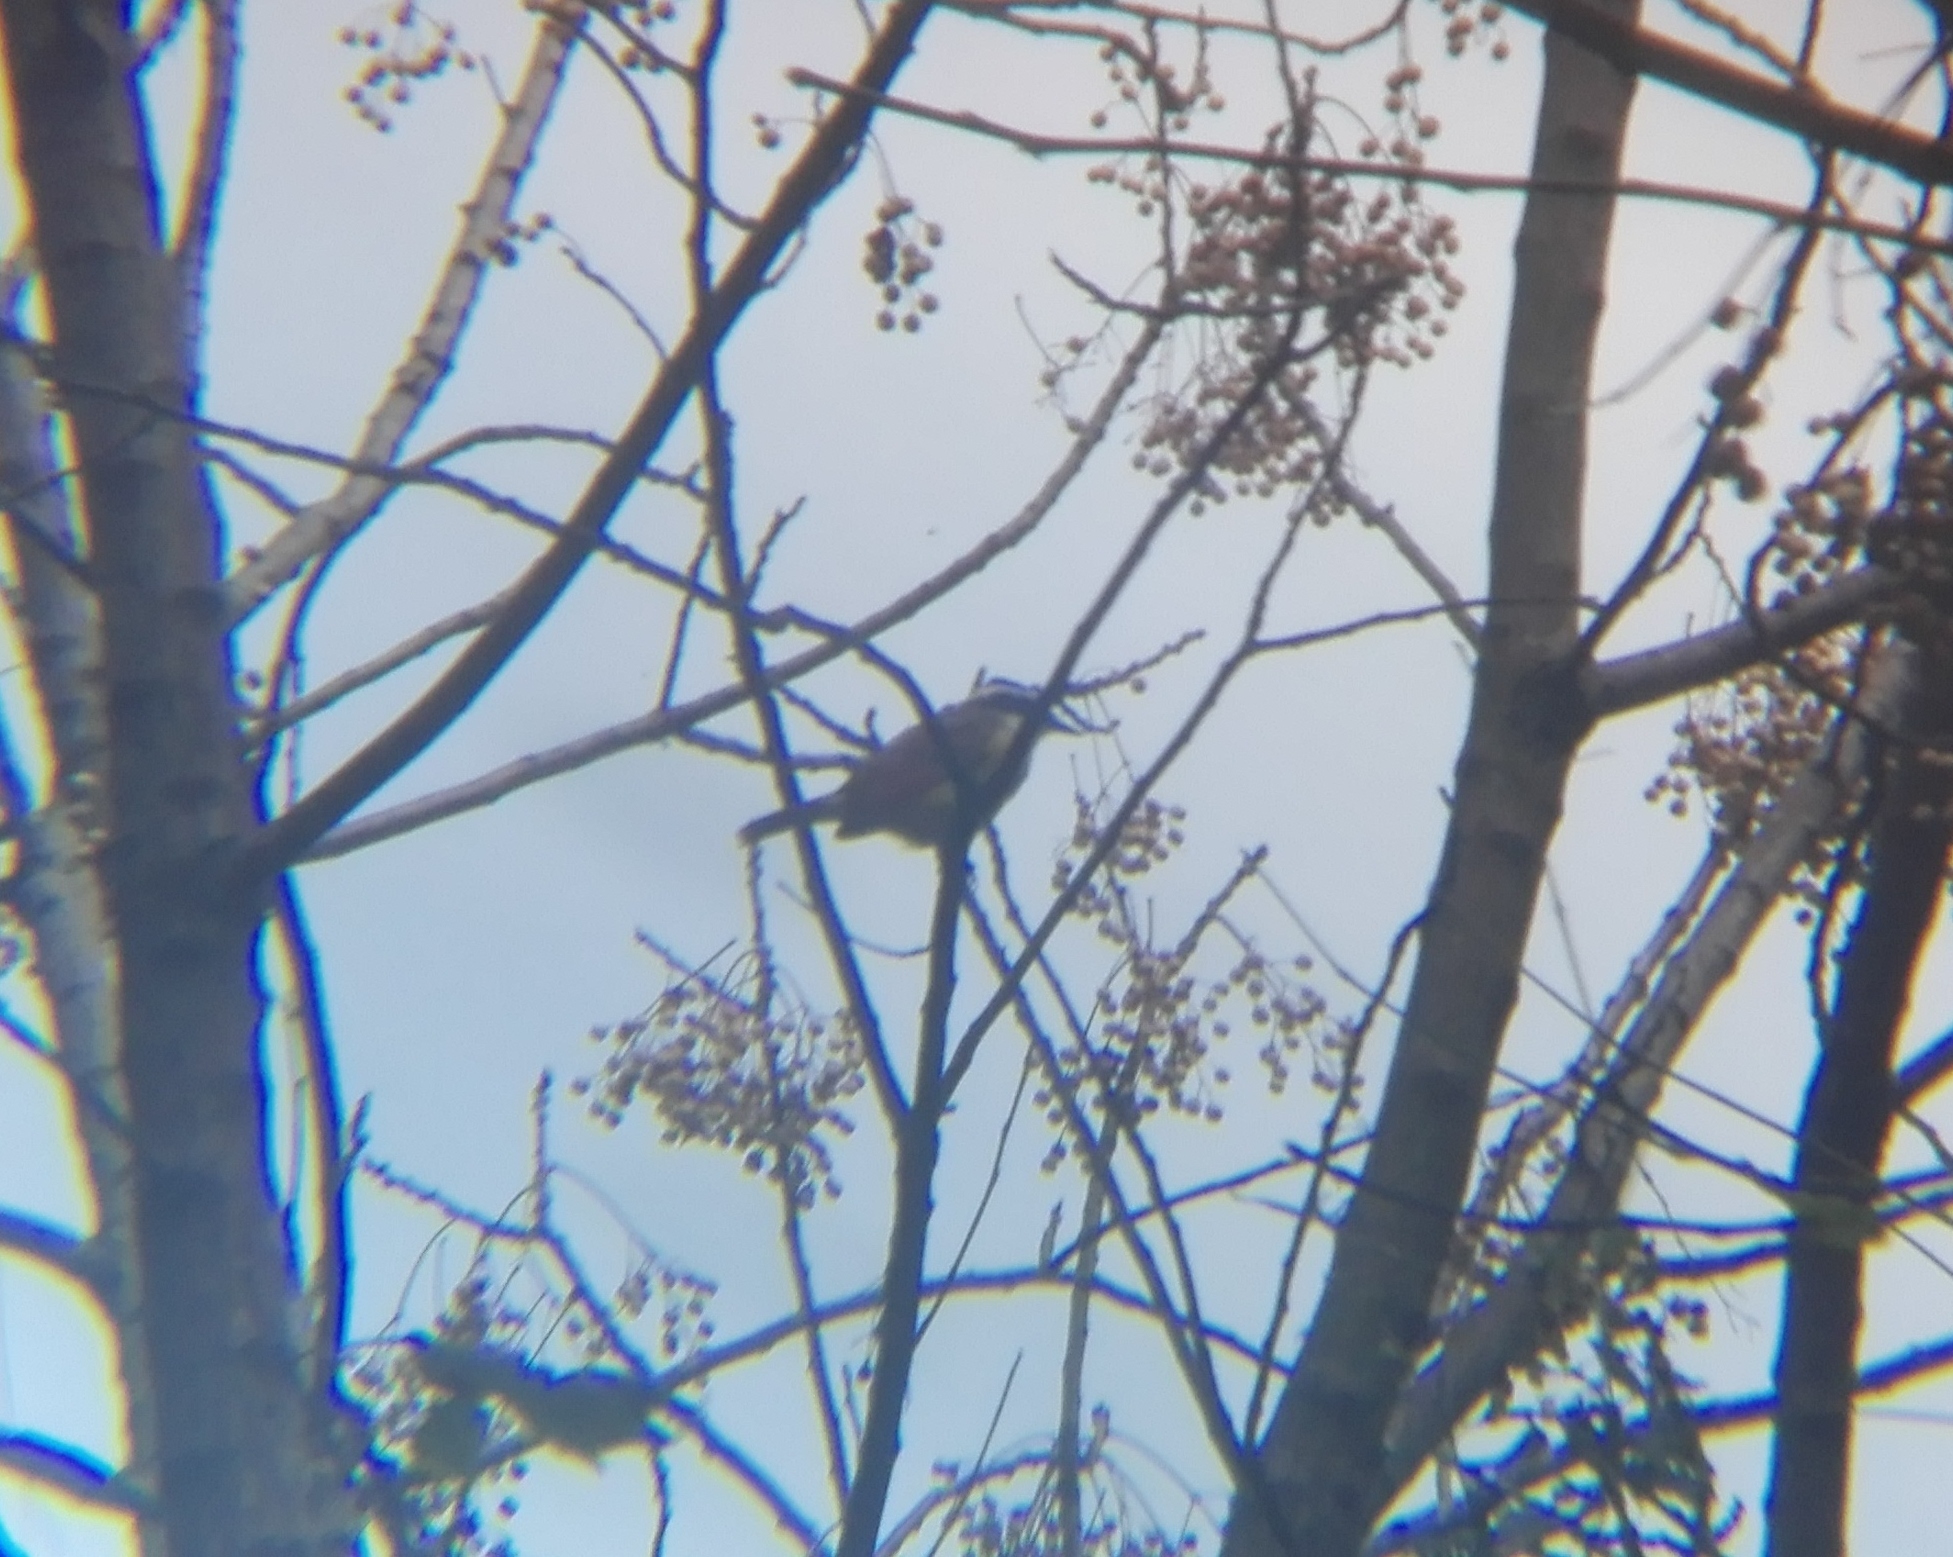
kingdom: Animalia
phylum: Chordata
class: Aves
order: Passeriformes
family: Tyrannidae
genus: Pitangus
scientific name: Pitangus sulphuratus
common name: Great kiskadee
